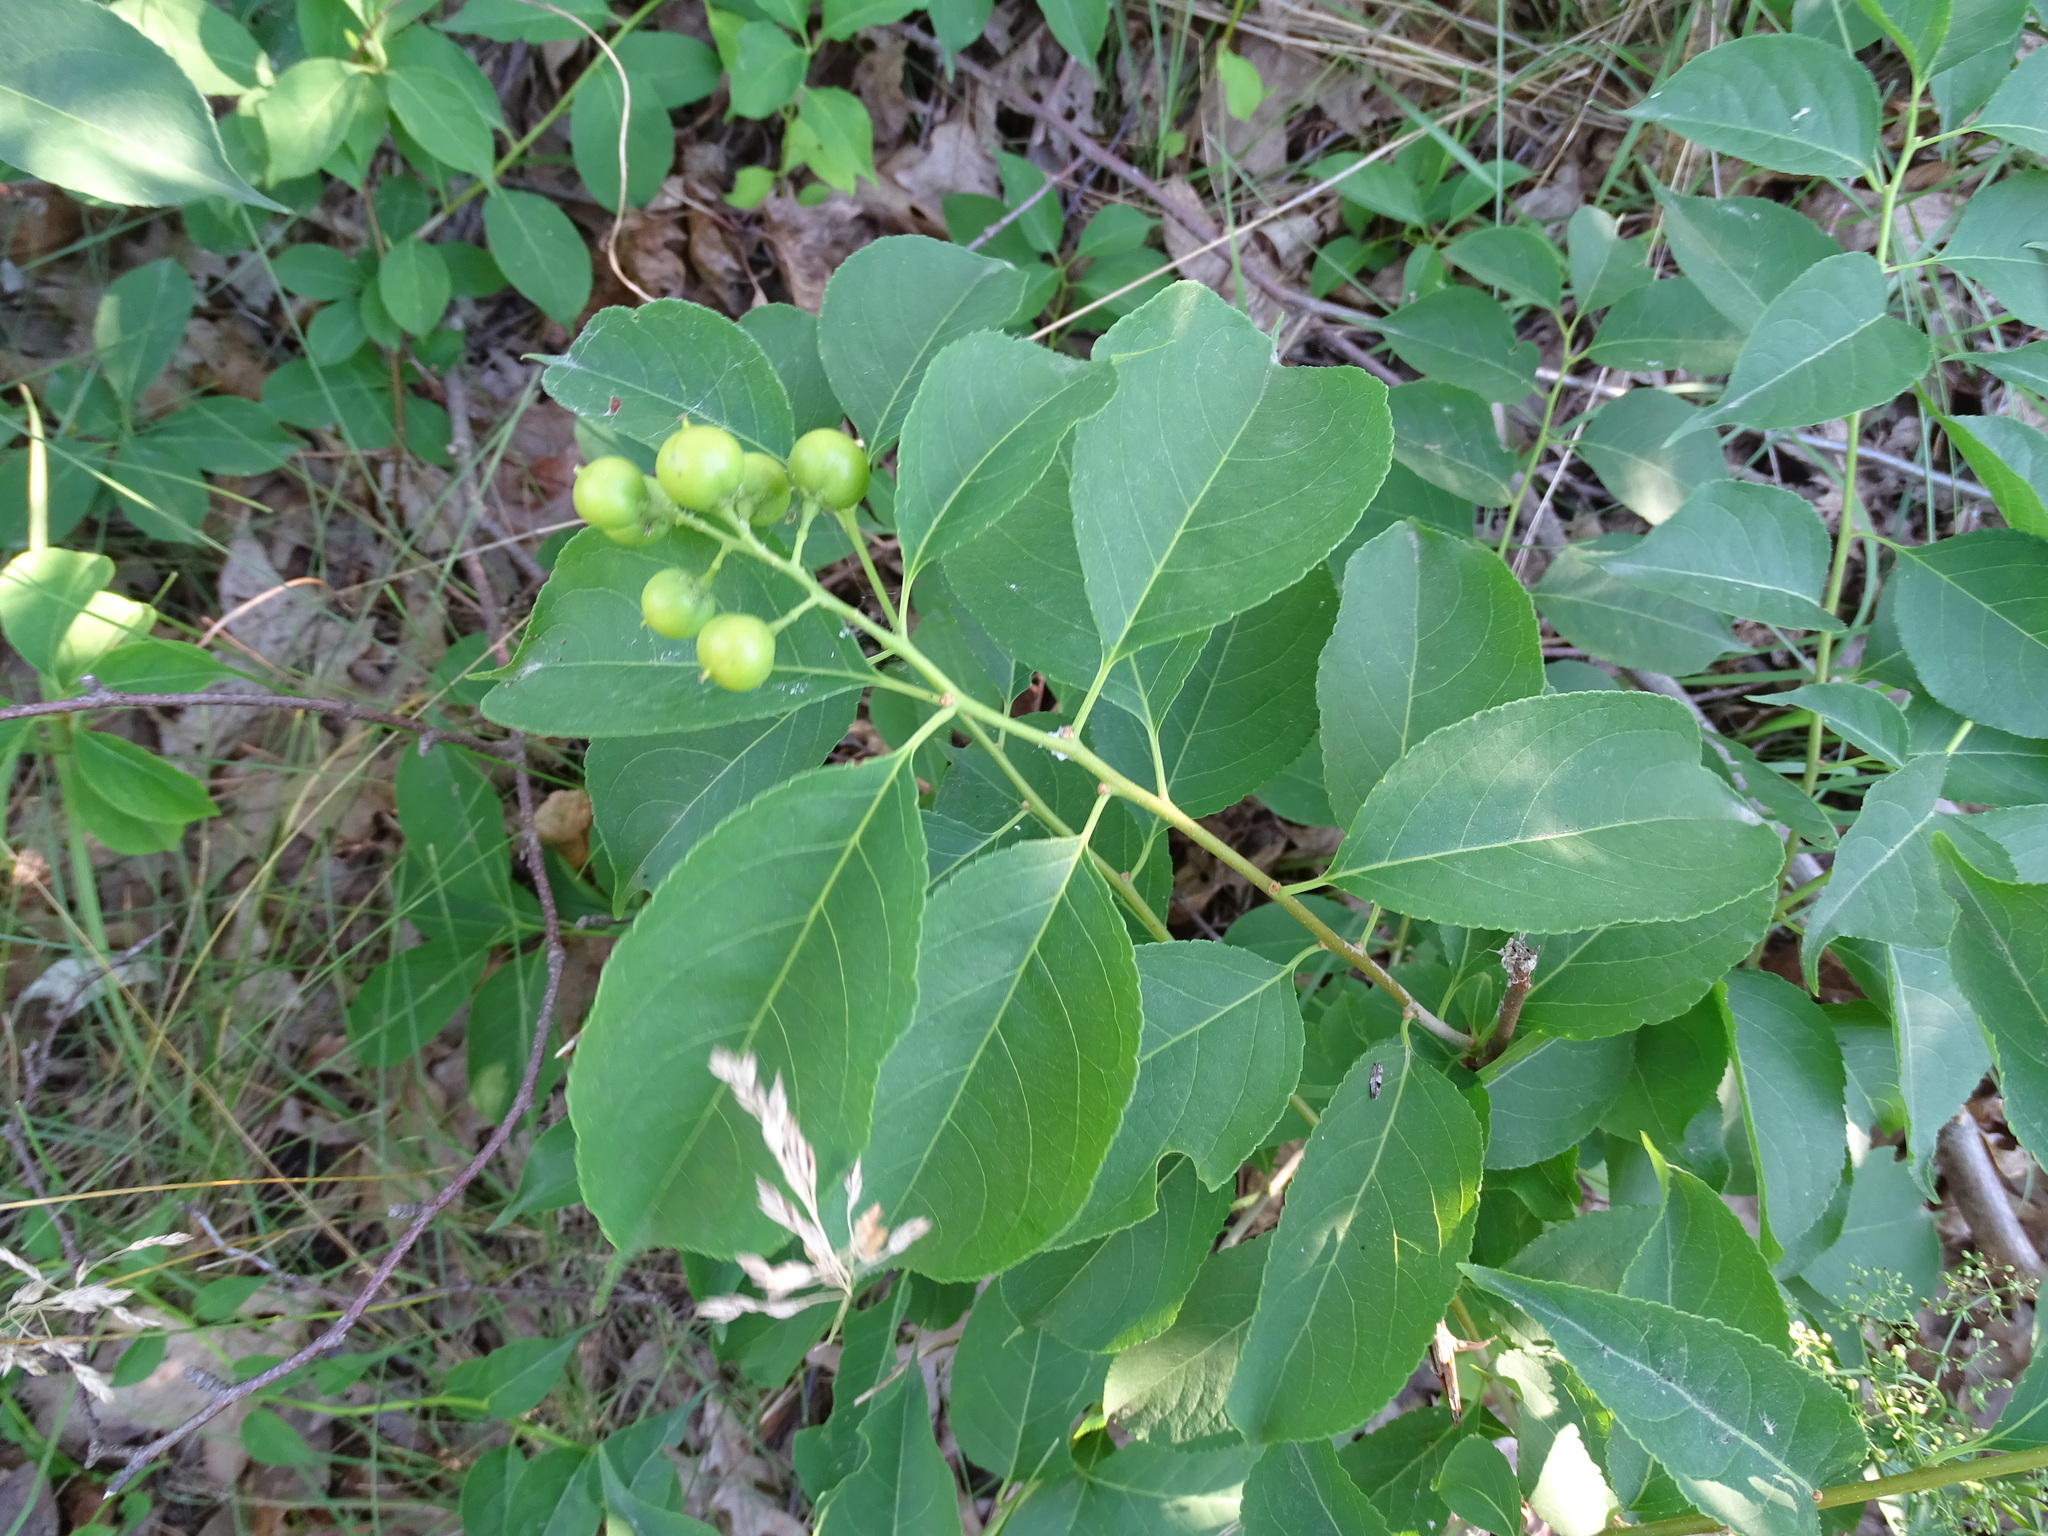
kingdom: Plantae
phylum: Tracheophyta
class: Magnoliopsida
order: Celastrales
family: Celastraceae
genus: Celastrus
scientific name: Celastrus scandens
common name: American bittersweet
